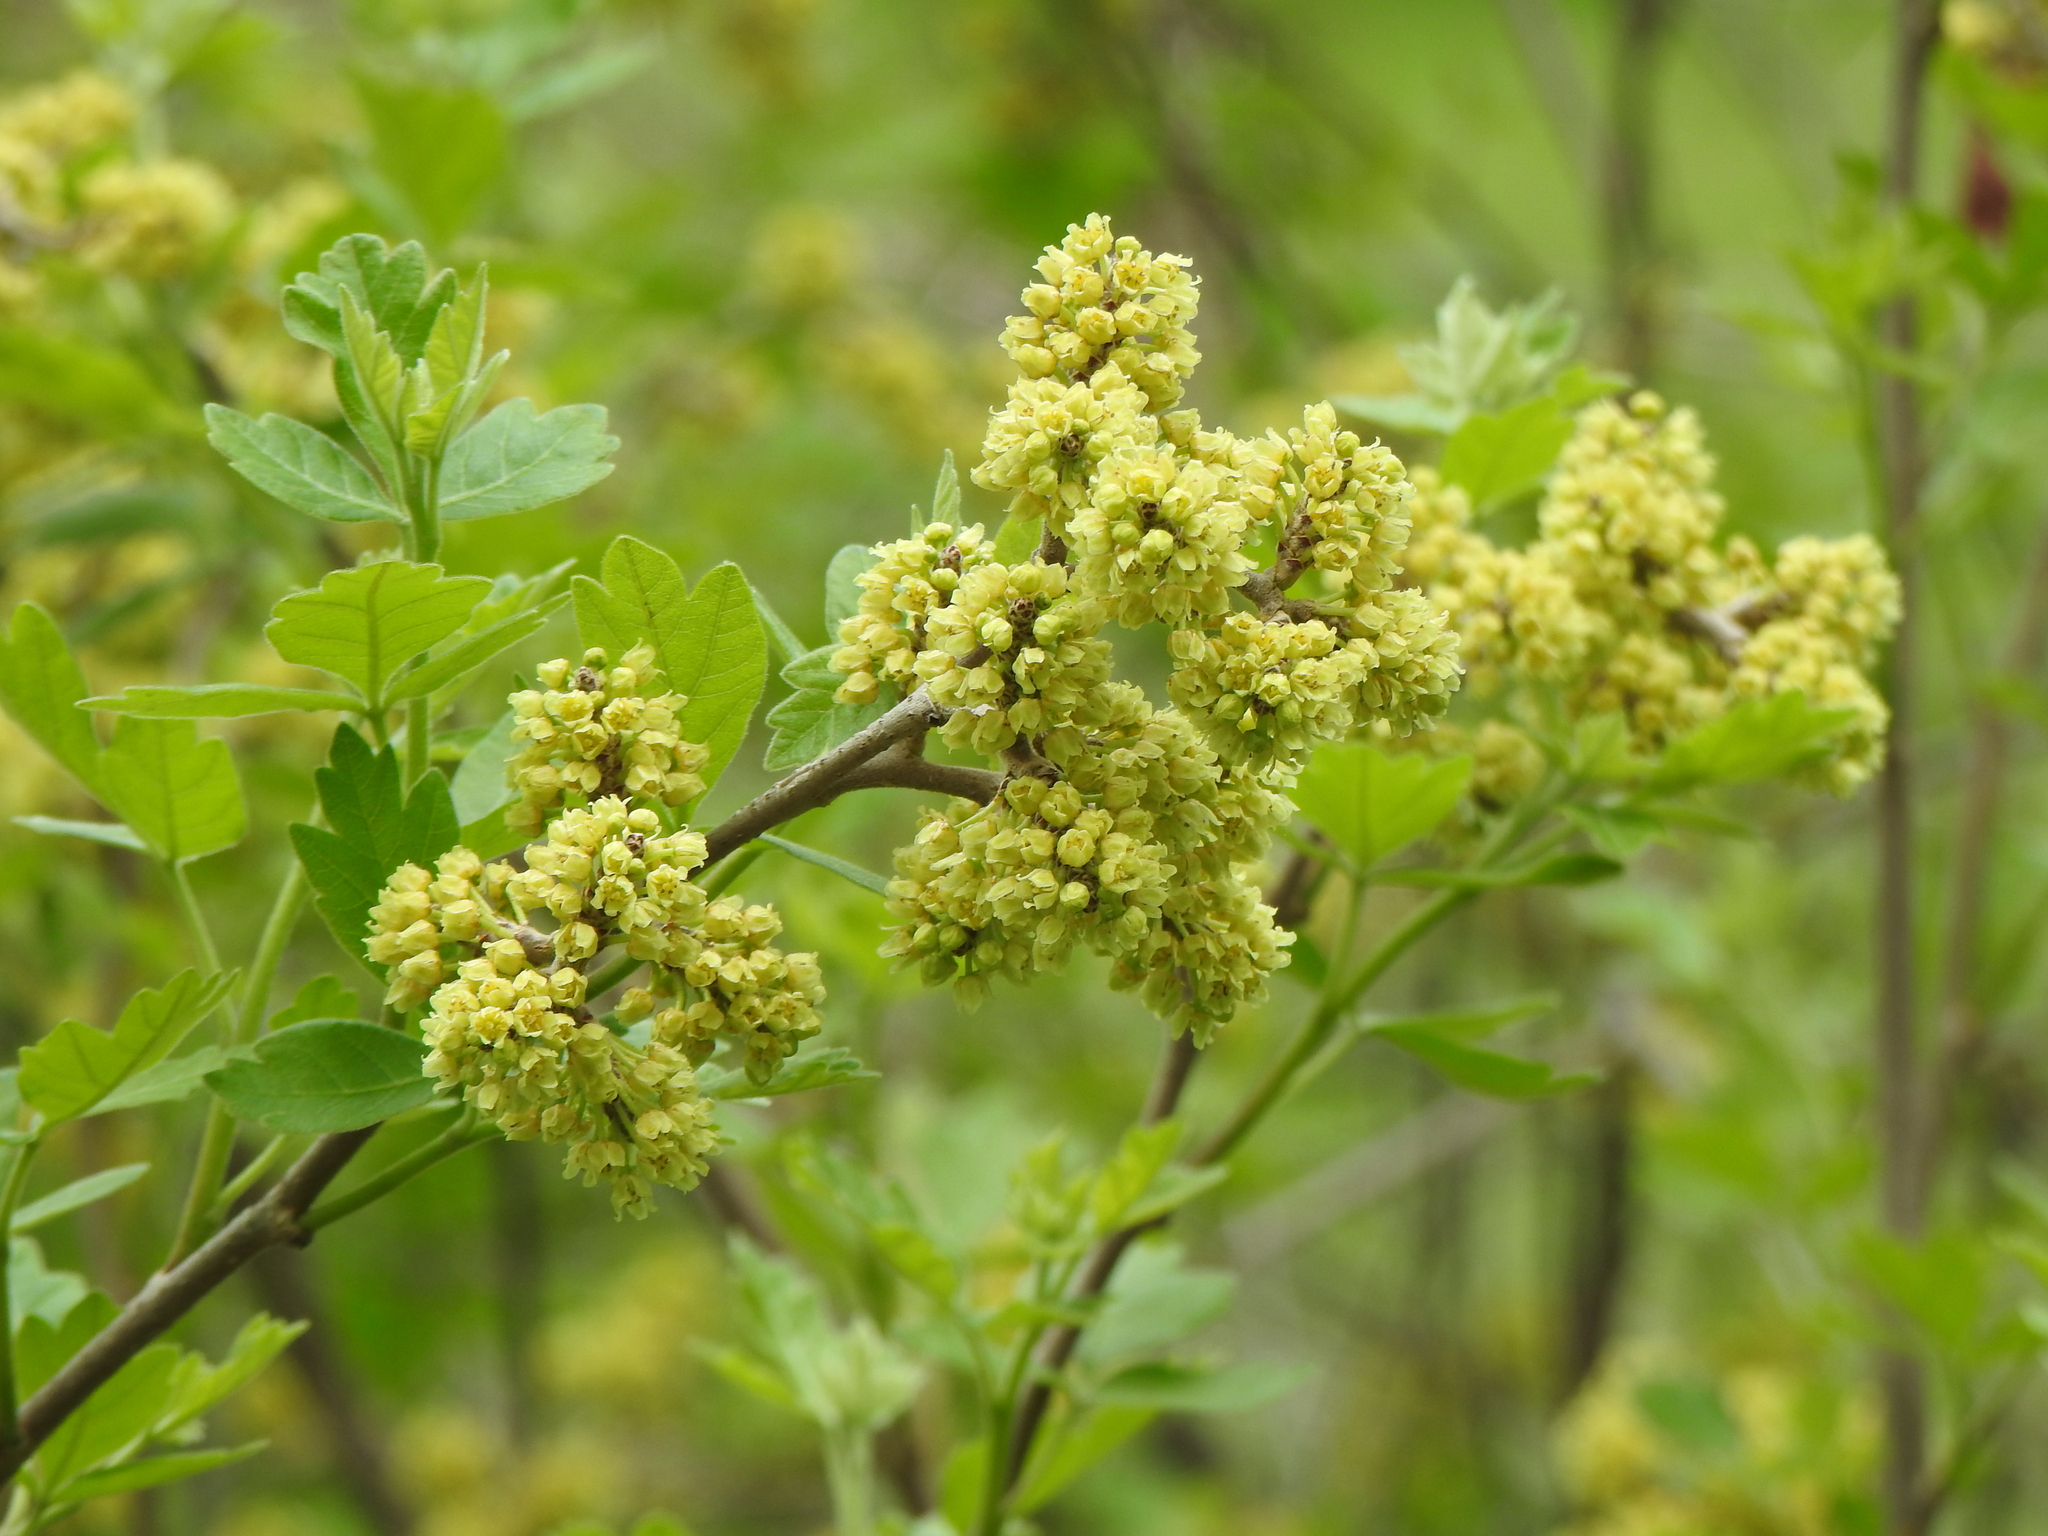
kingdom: Plantae
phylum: Tracheophyta
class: Magnoliopsida
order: Sapindales
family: Anacardiaceae
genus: Rhus
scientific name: Rhus aromatica
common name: Aromatic sumac
